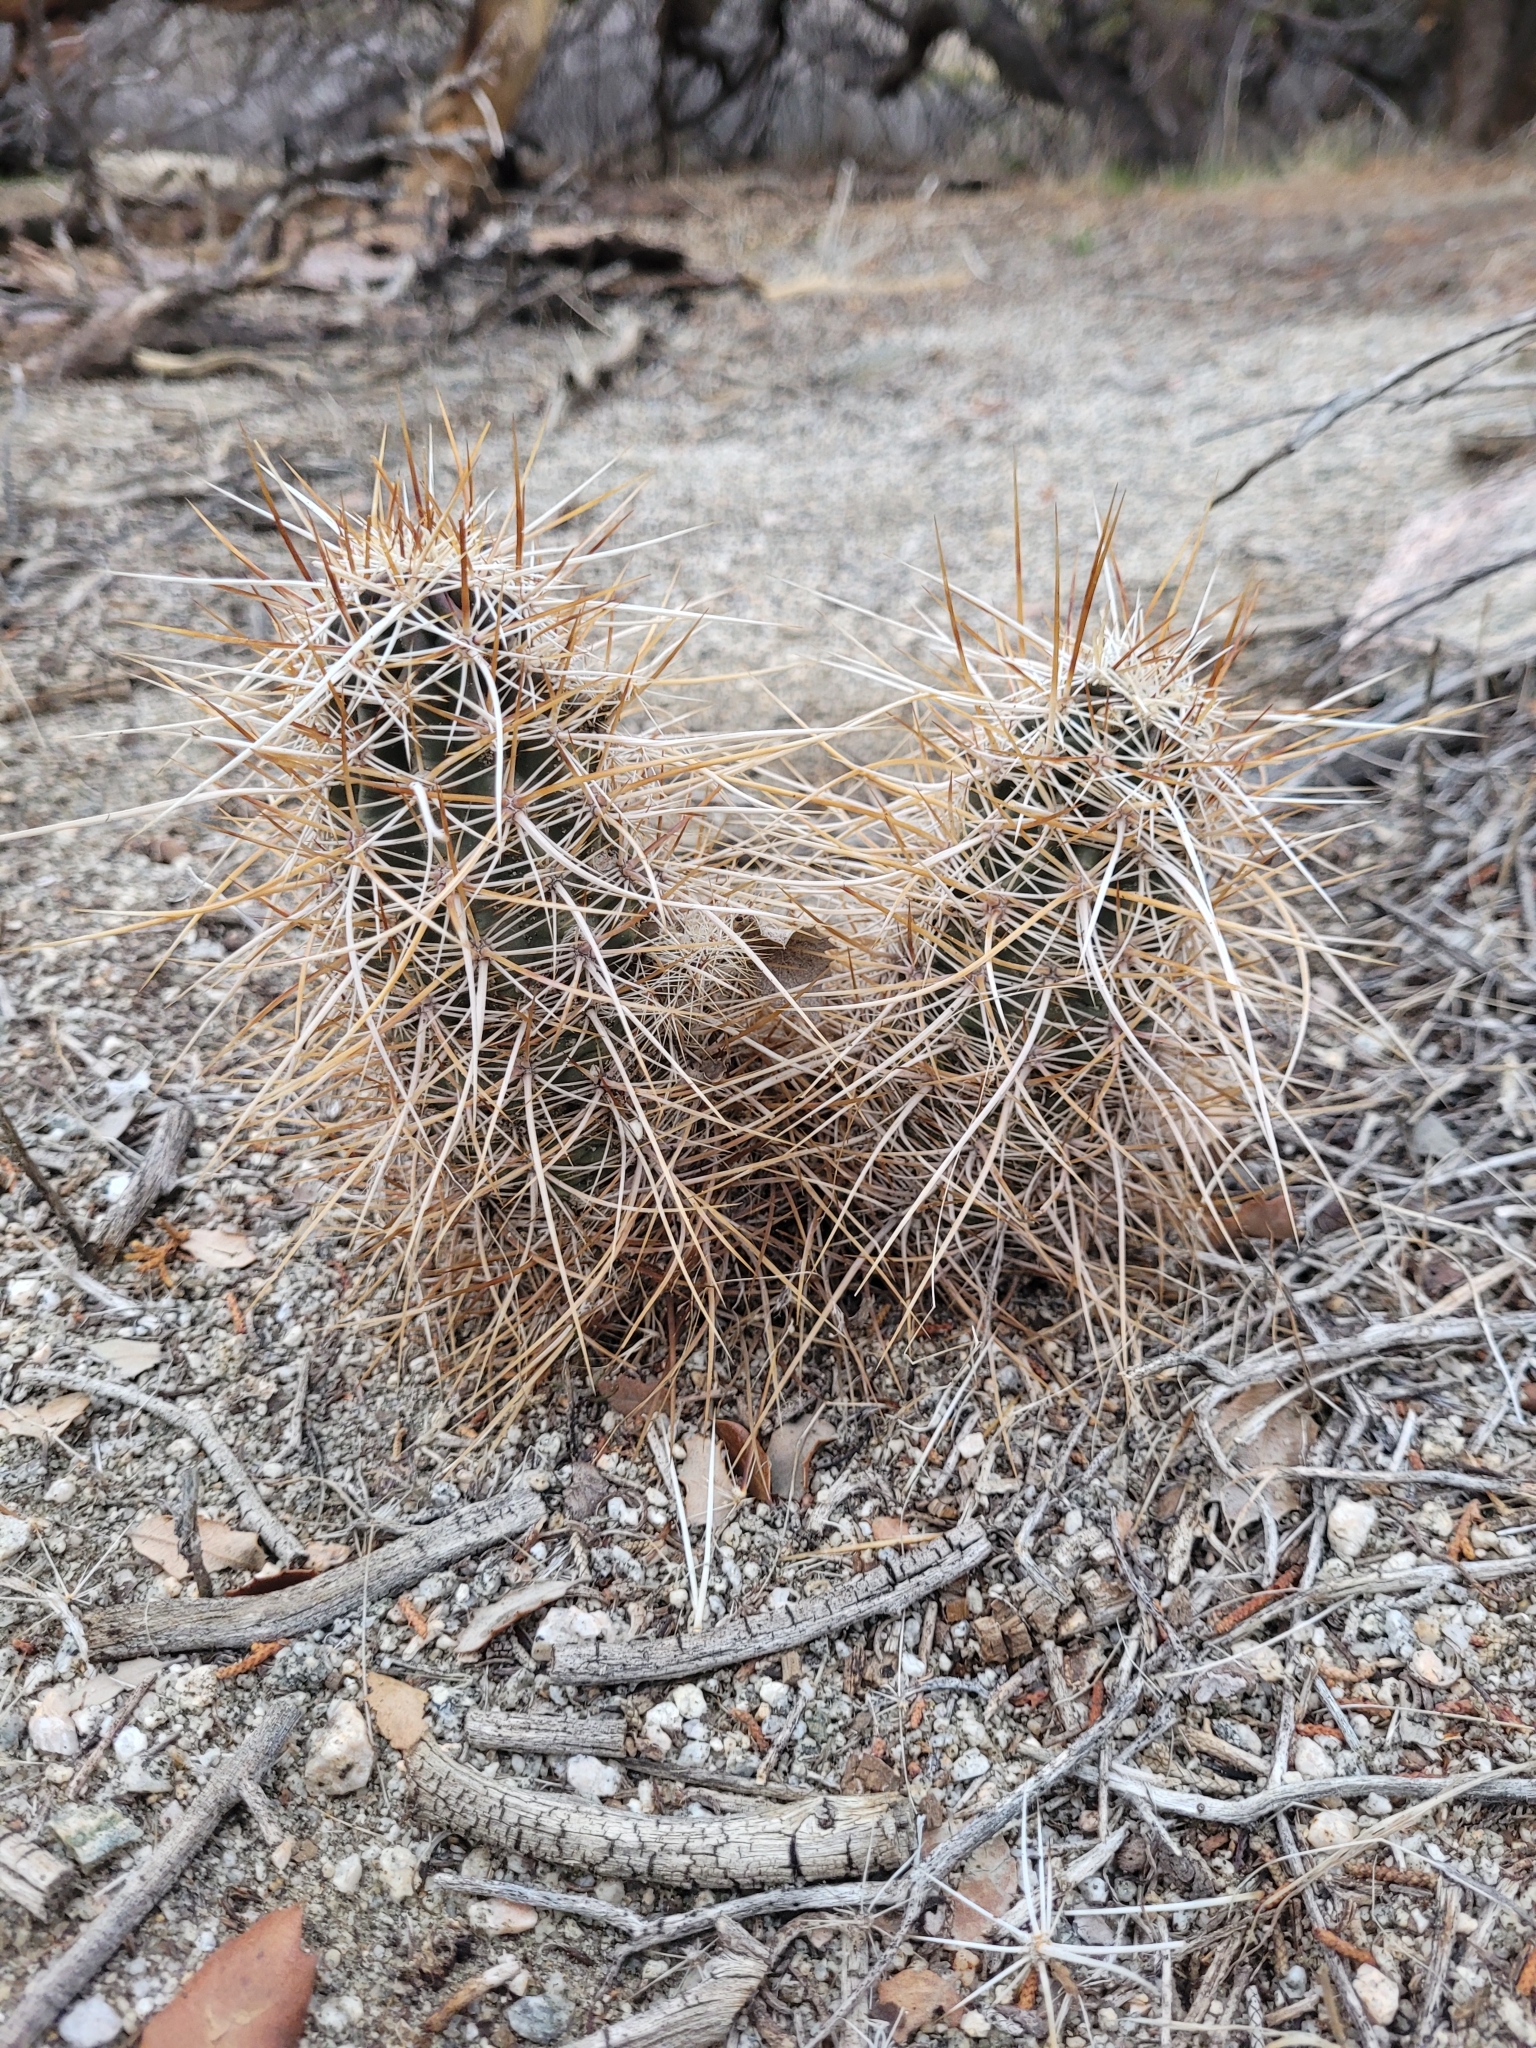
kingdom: Plantae
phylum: Tracheophyta
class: Magnoliopsida
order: Caryophyllales
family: Cactaceae
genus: Echinocereus
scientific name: Echinocereus engelmannii
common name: Engelmann's hedgehog cactus
